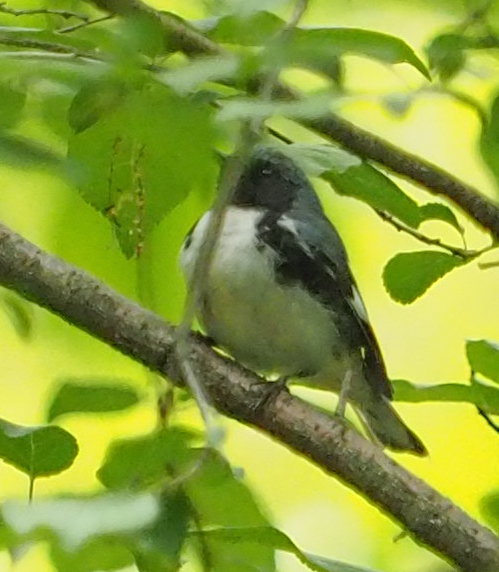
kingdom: Animalia
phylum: Chordata
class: Aves
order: Passeriformes
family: Parulidae
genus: Setophaga
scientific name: Setophaga caerulescens
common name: Black-throated blue warbler
